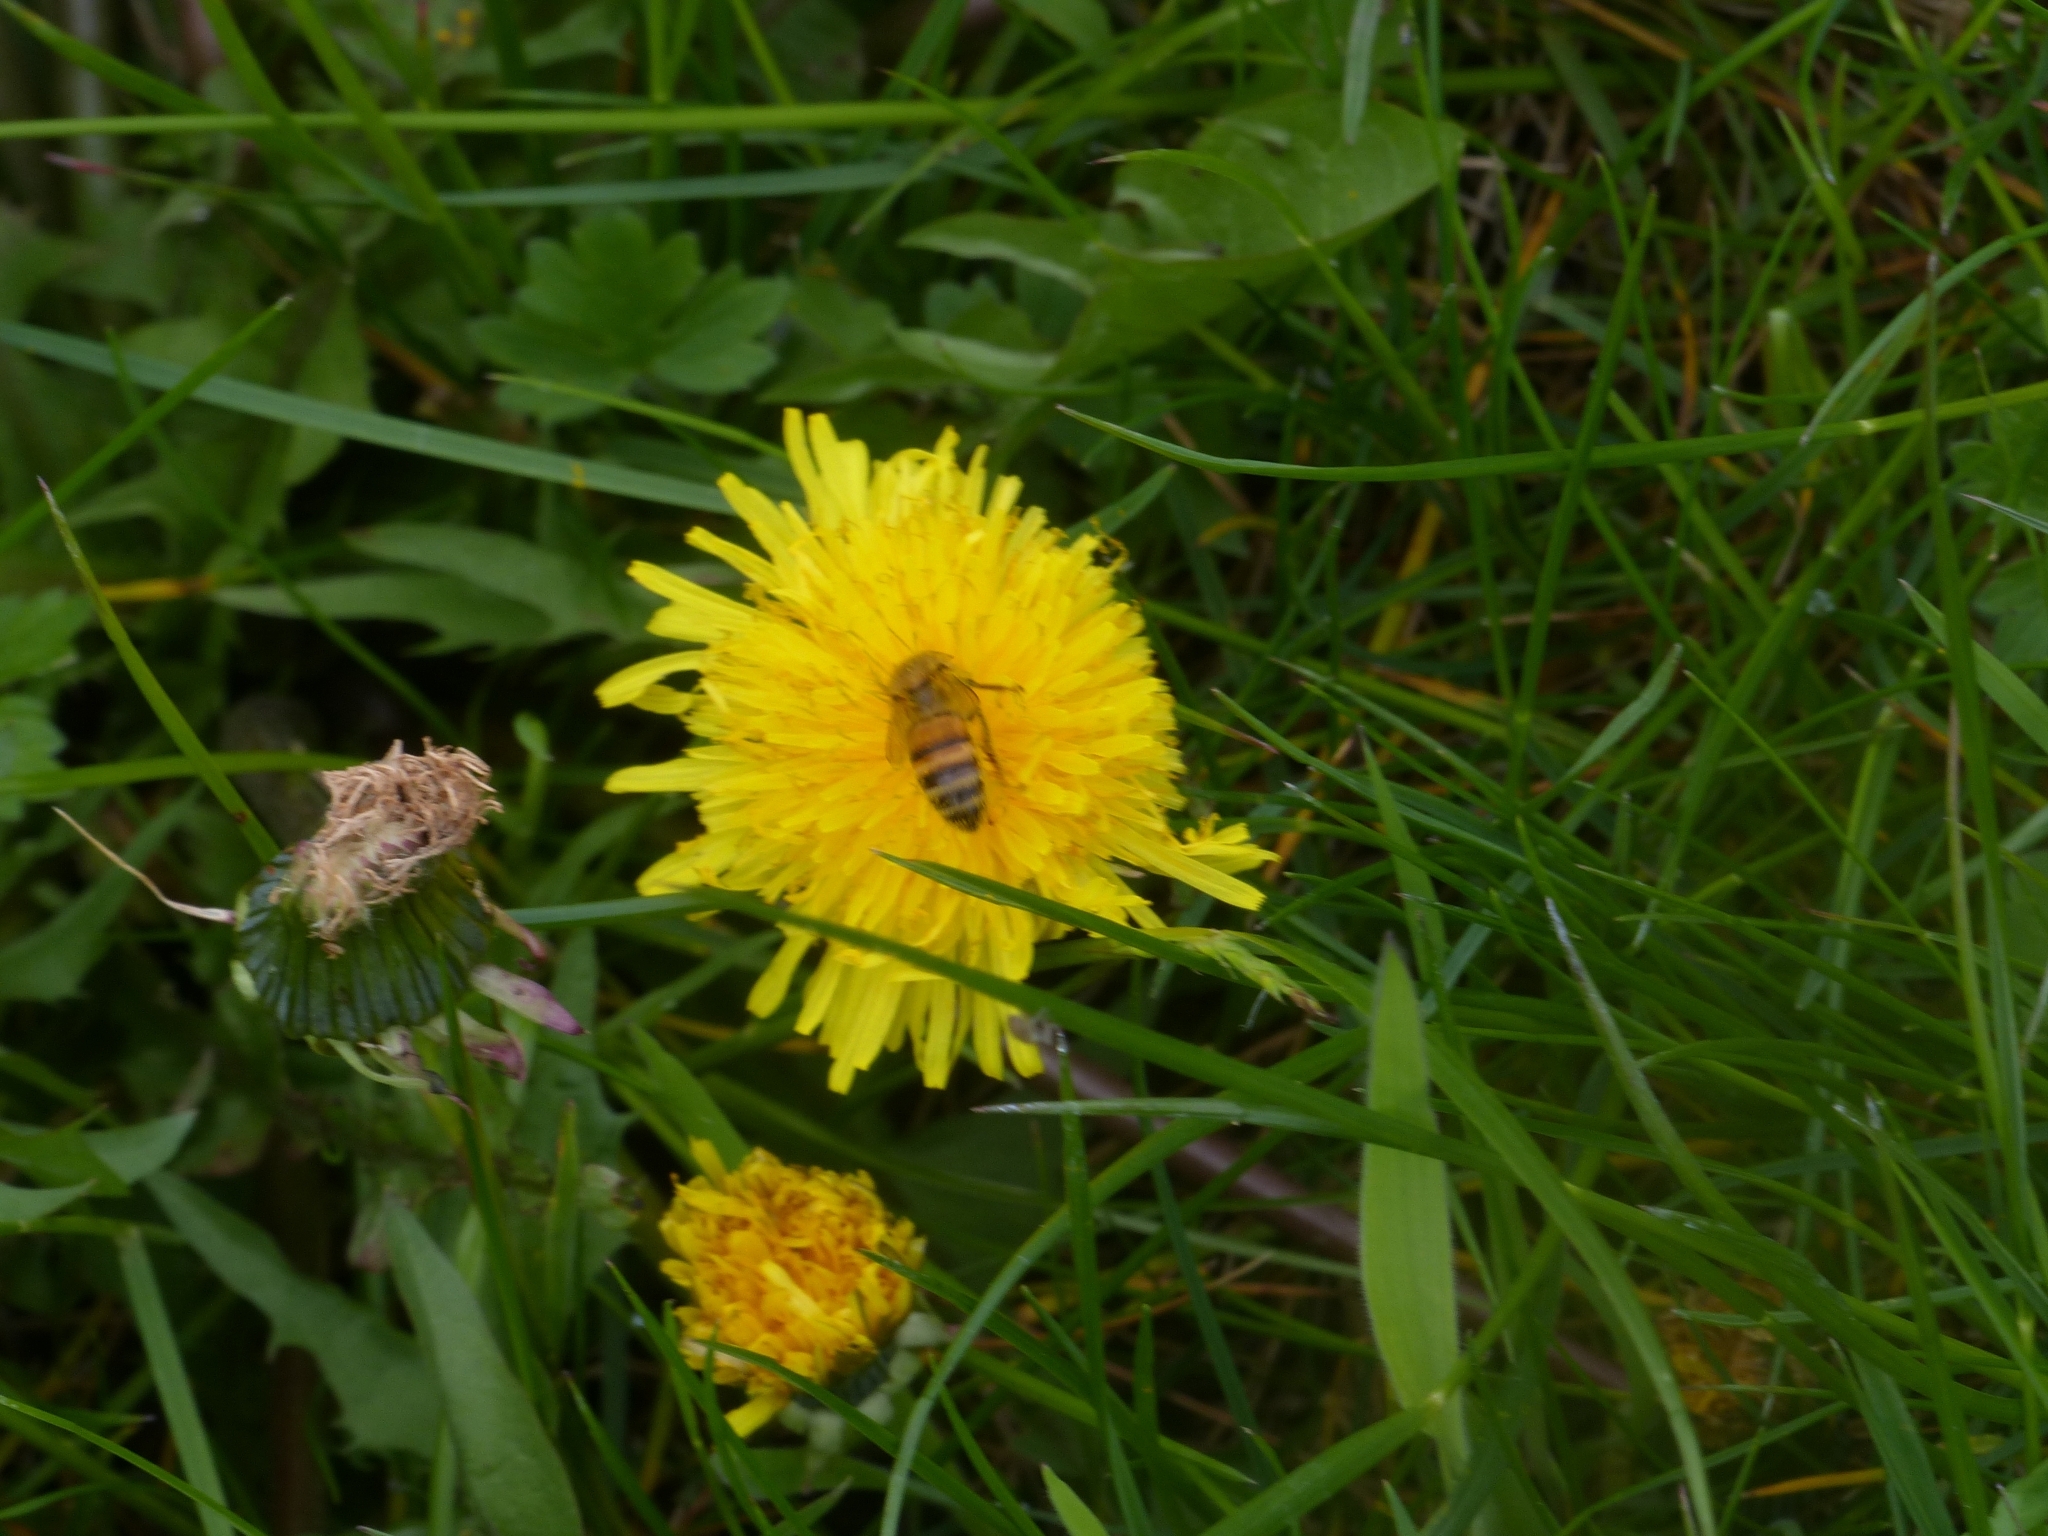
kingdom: Animalia
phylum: Arthropoda
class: Insecta
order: Hymenoptera
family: Apidae
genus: Apis
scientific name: Apis mellifera
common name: Honey bee
